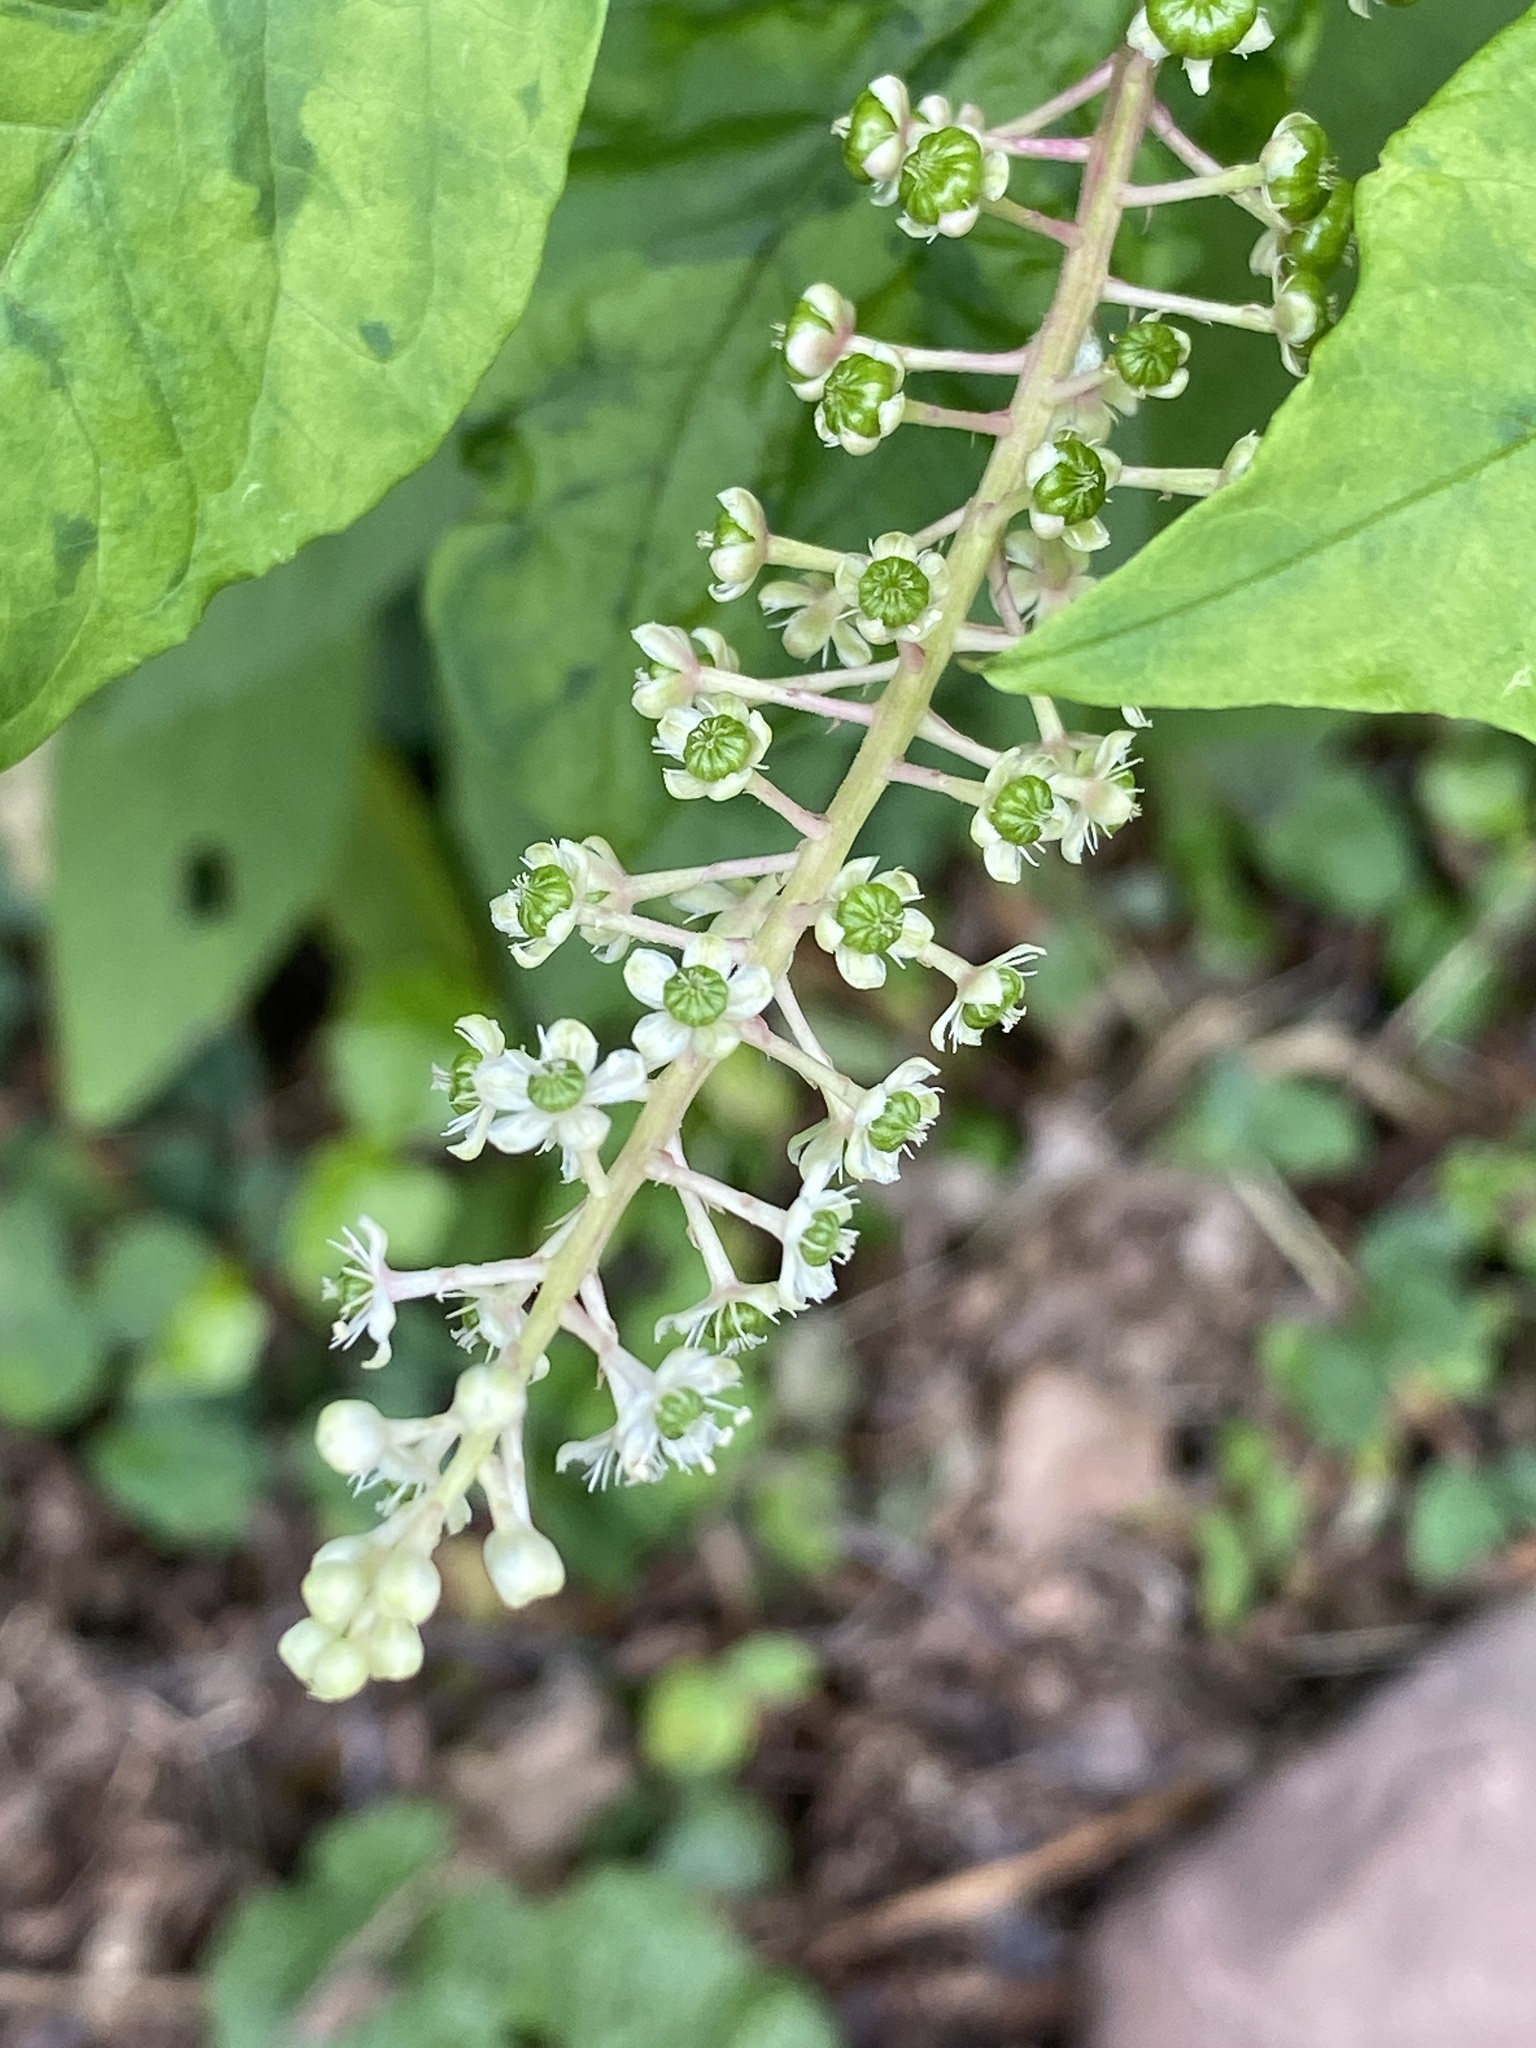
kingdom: Plantae
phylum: Tracheophyta
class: Magnoliopsida
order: Caryophyllales
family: Phytolaccaceae
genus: Phytolacca
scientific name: Phytolacca americana
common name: American pokeweed
